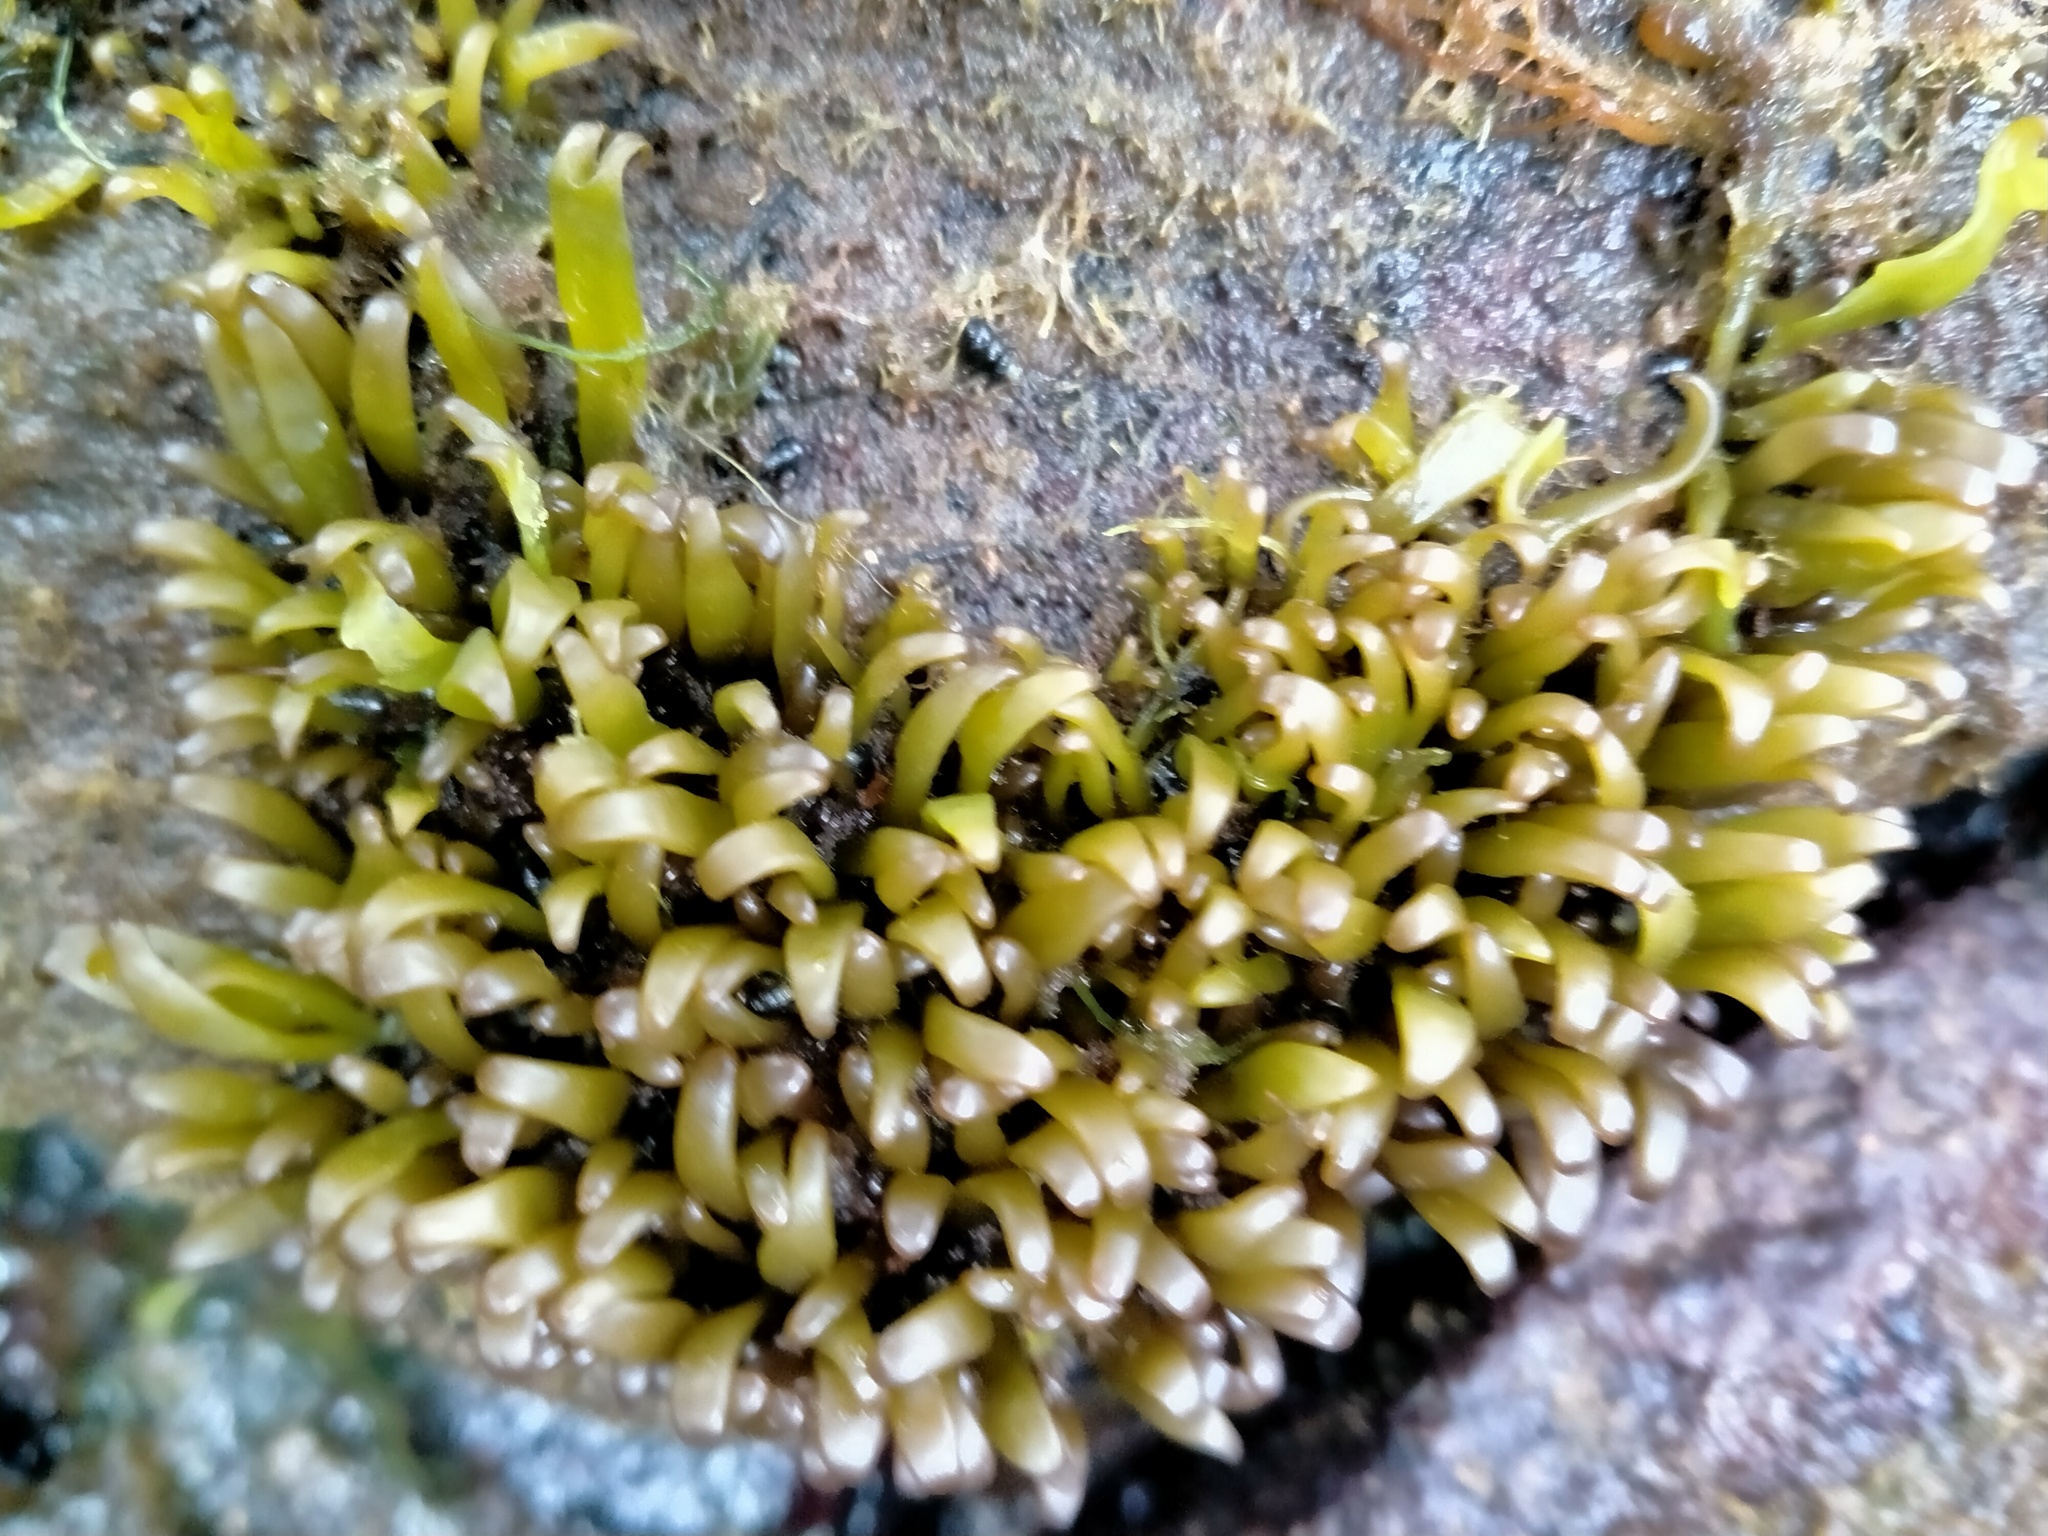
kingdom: Plantae
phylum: Rhodophyta
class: Florideophyceae
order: Gigartinales
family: Gigartinaceae
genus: Iridaea
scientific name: Iridaea tuberculosa
